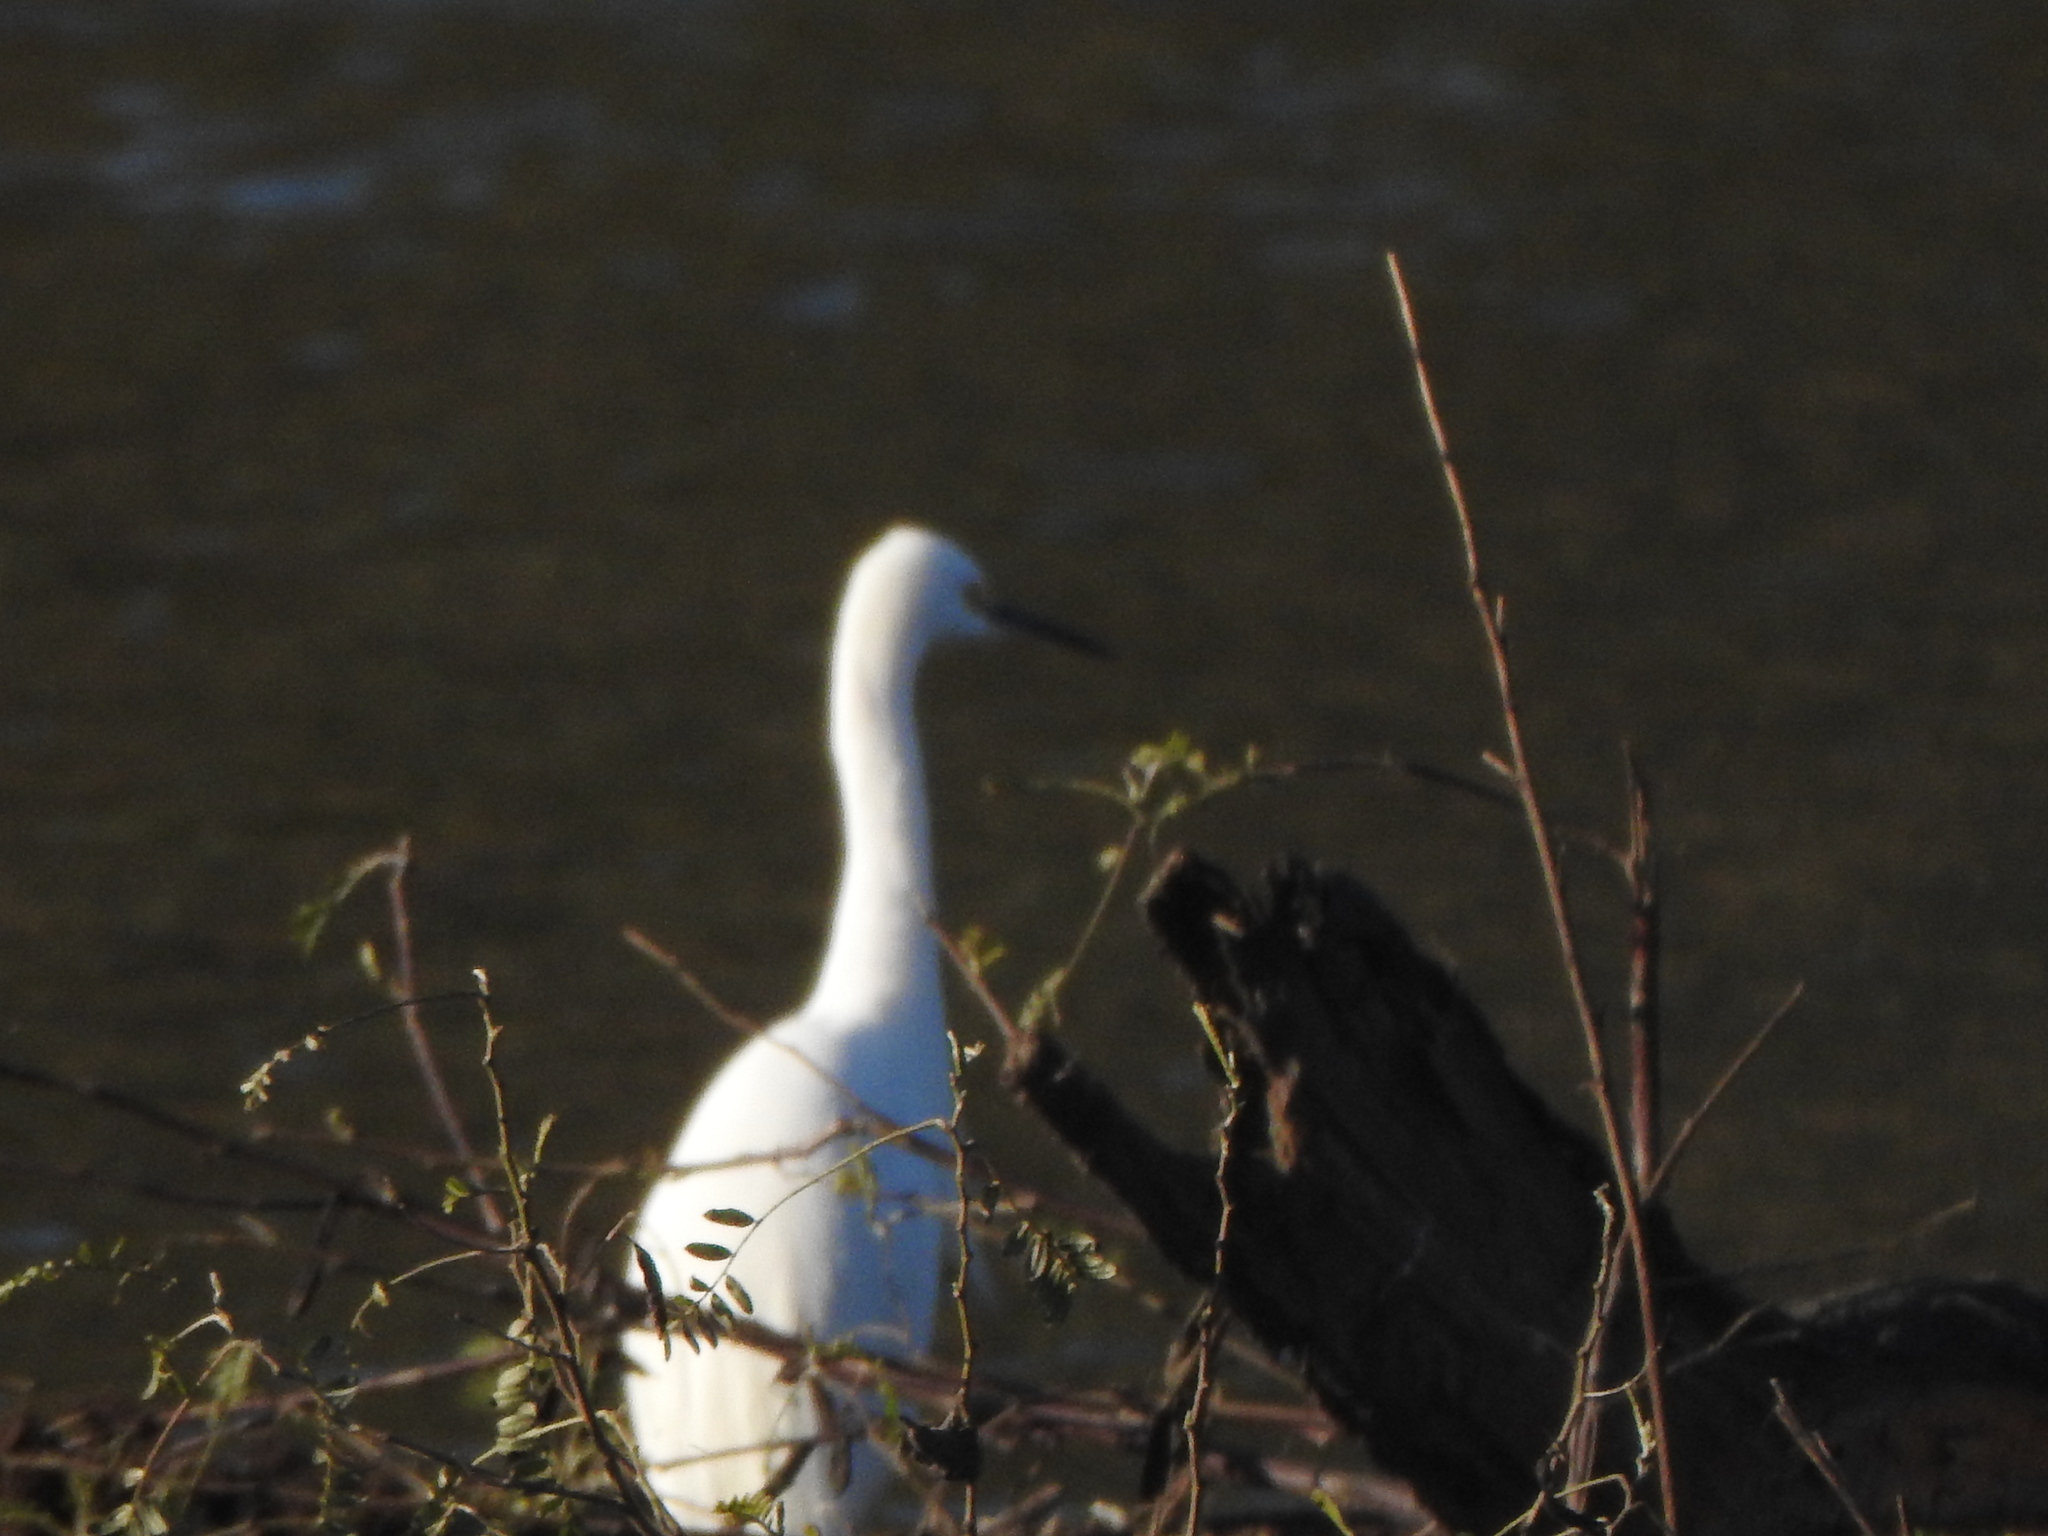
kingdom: Animalia
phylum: Chordata
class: Aves
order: Pelecaniformes
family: Ardeidae
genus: Egretta
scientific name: Egretta thula
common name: Snowy egret
